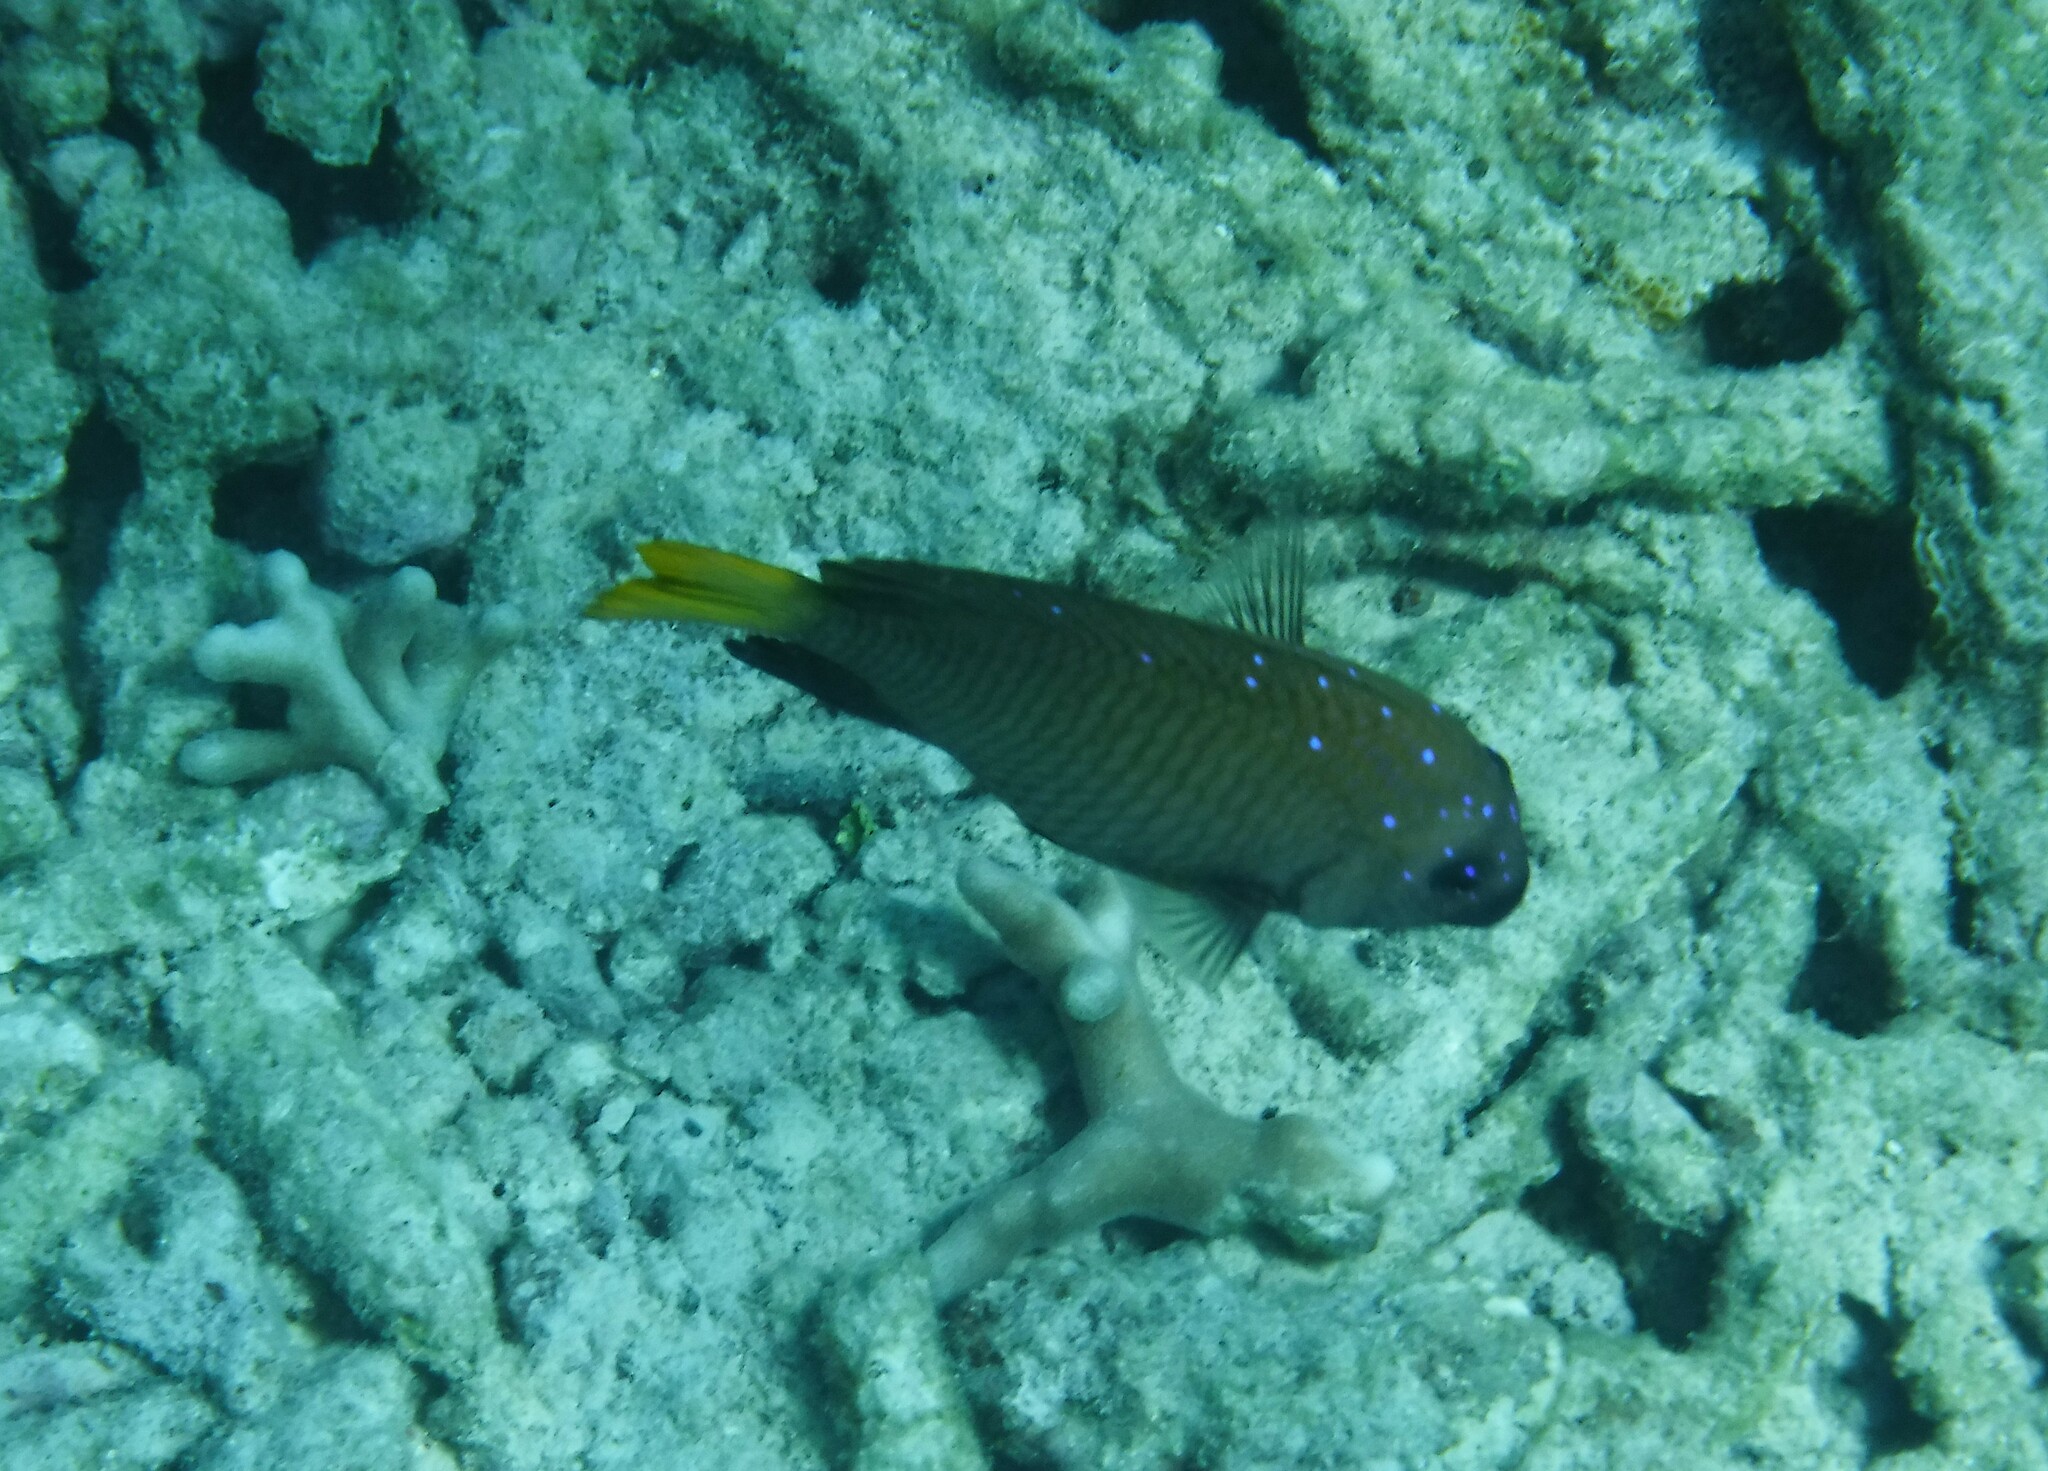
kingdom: Animalia
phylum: Chordata
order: Perciformes
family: Pomacentridae
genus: Microspathodon
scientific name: Microspathodon chrysurus
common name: Yellowtail damselfish
